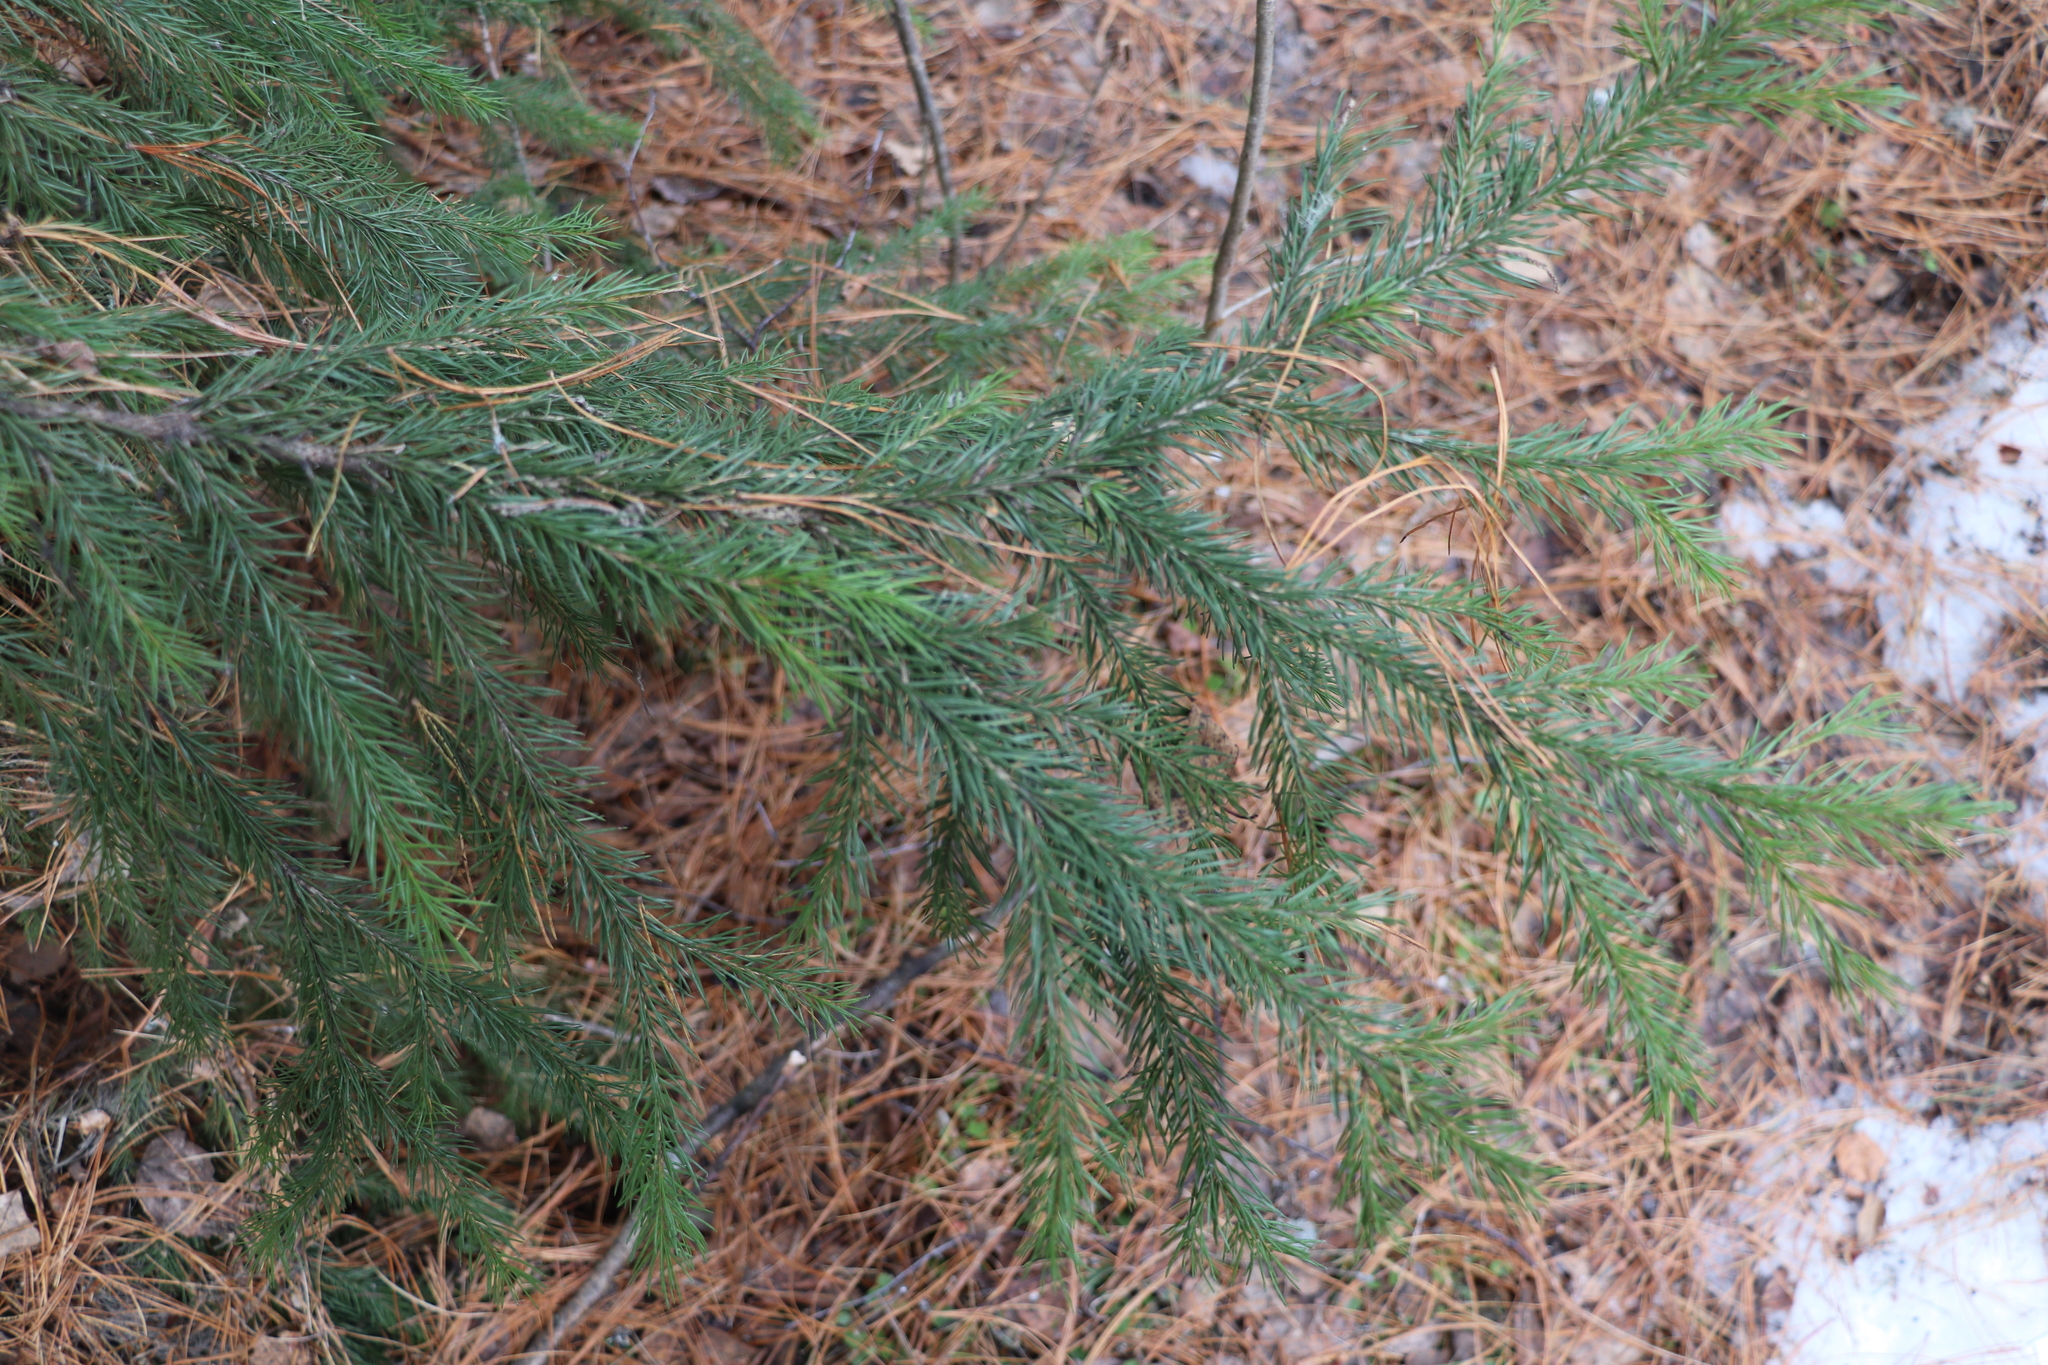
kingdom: Plantae
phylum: Tracheophyta
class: Pinopsida
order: Pinales
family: Pinaceae
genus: Picea
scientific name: Picea obovata
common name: Siberian spruce
